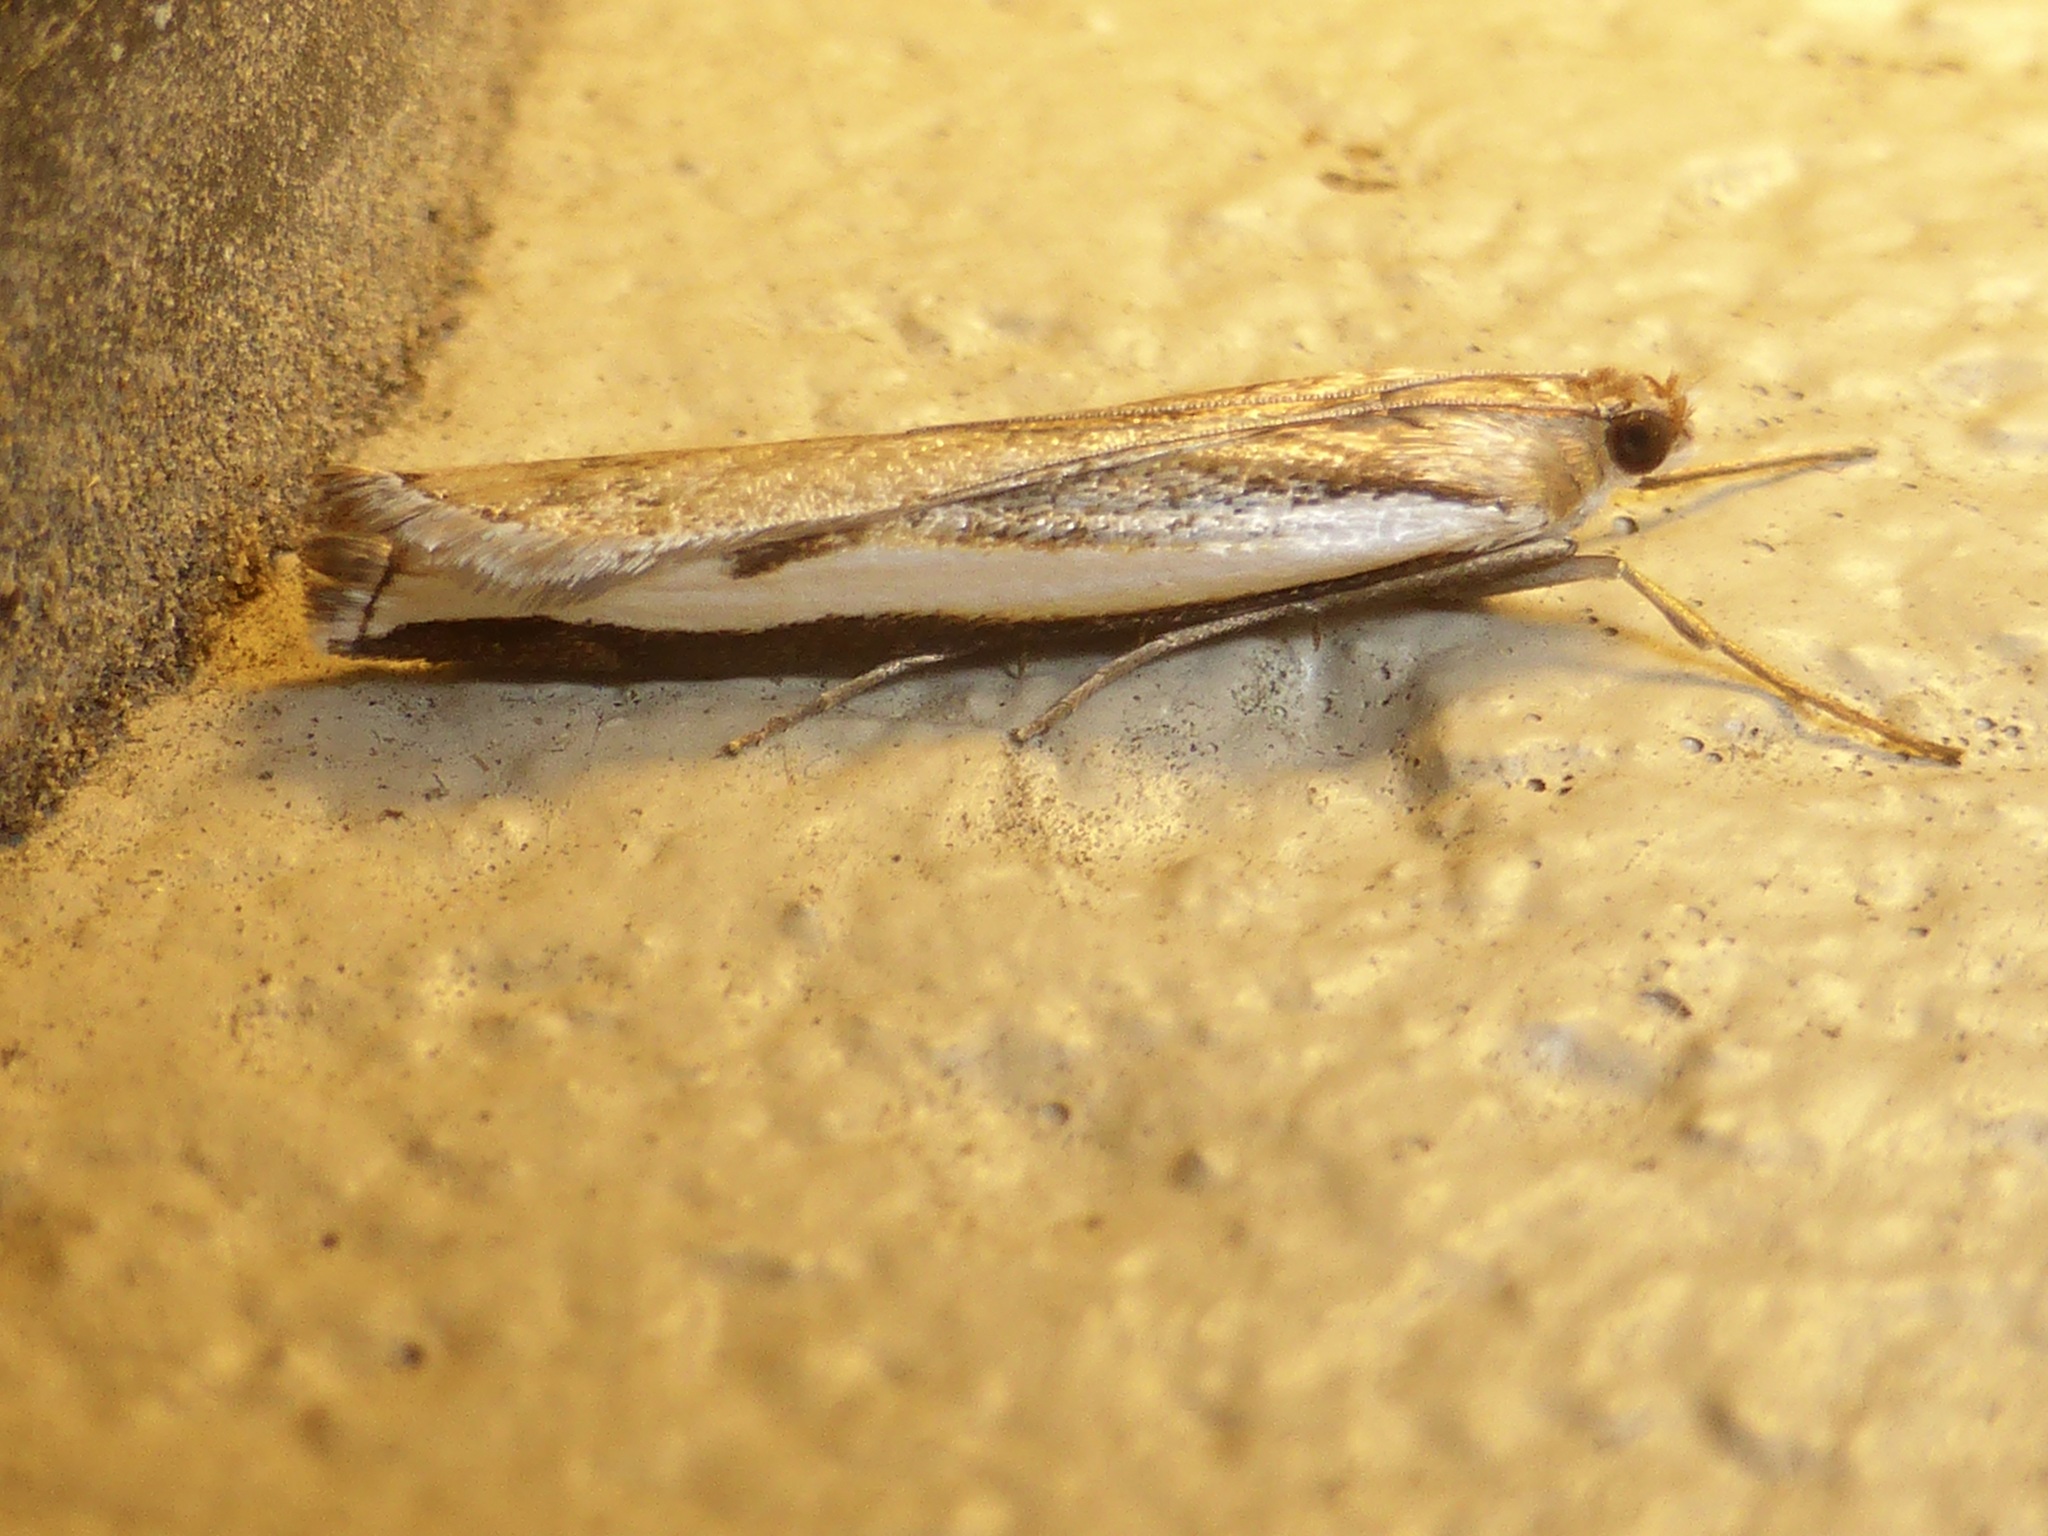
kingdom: Animalia
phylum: Arthropoda
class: Insecta
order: Lepidoptera
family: Crambidae
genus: Orocrambus
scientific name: Orocrambus flexuosellus
